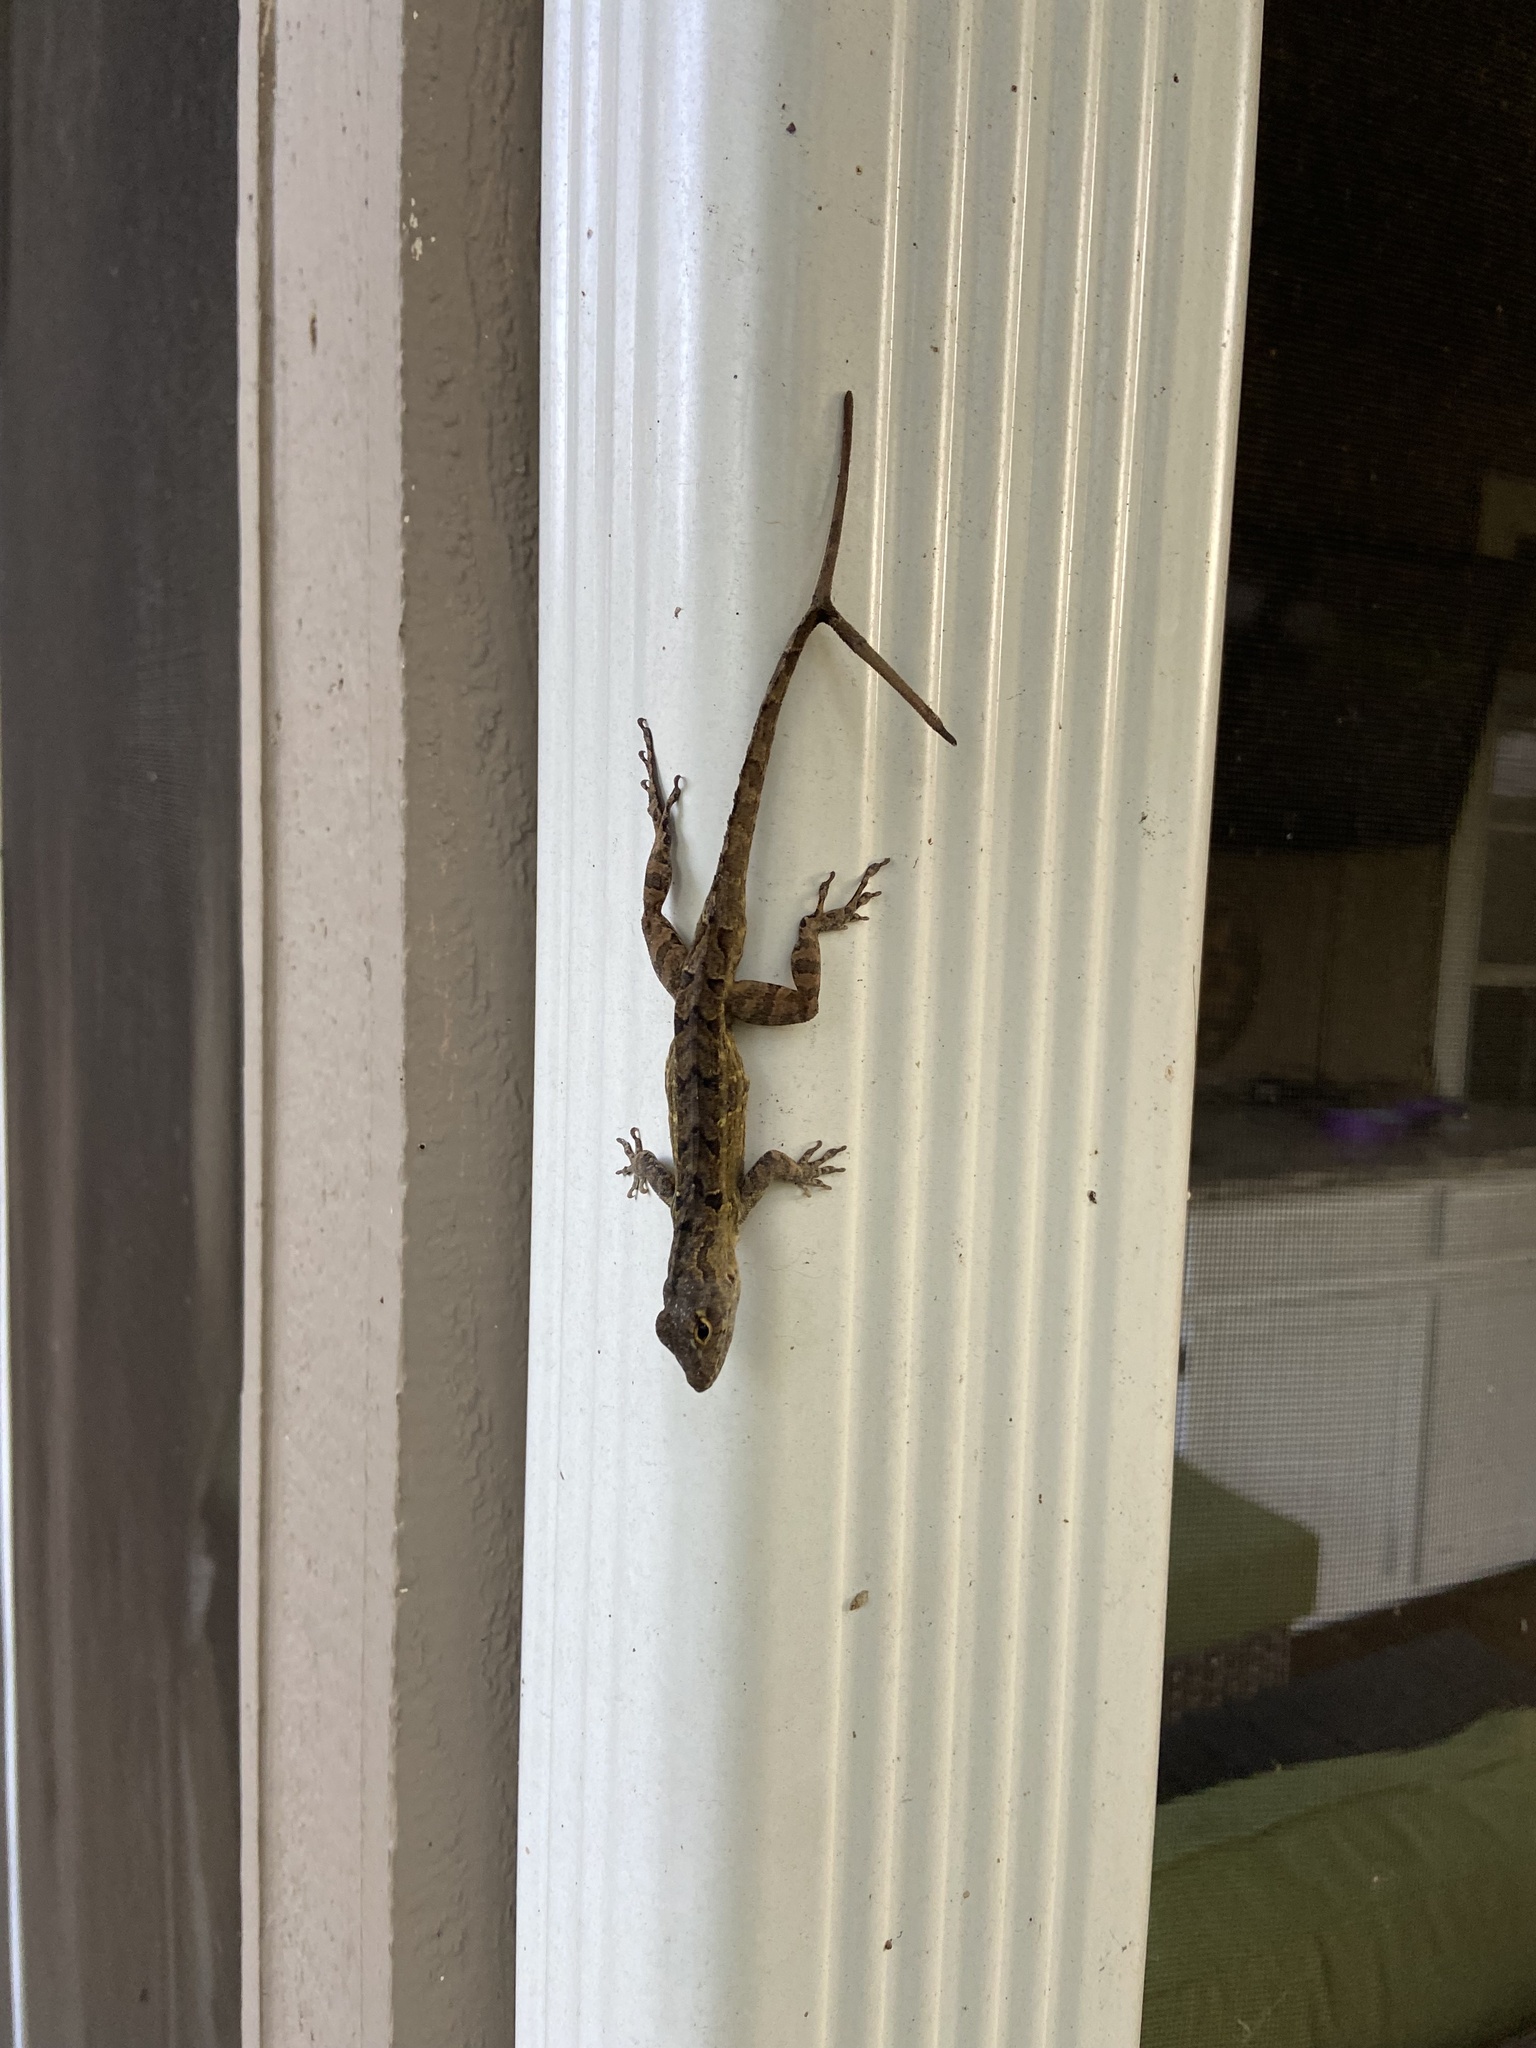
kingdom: Animalia
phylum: Chordata
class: Squamata
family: Dactyloidae
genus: Anolis
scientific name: Anolis sagrei
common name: Brown anole
